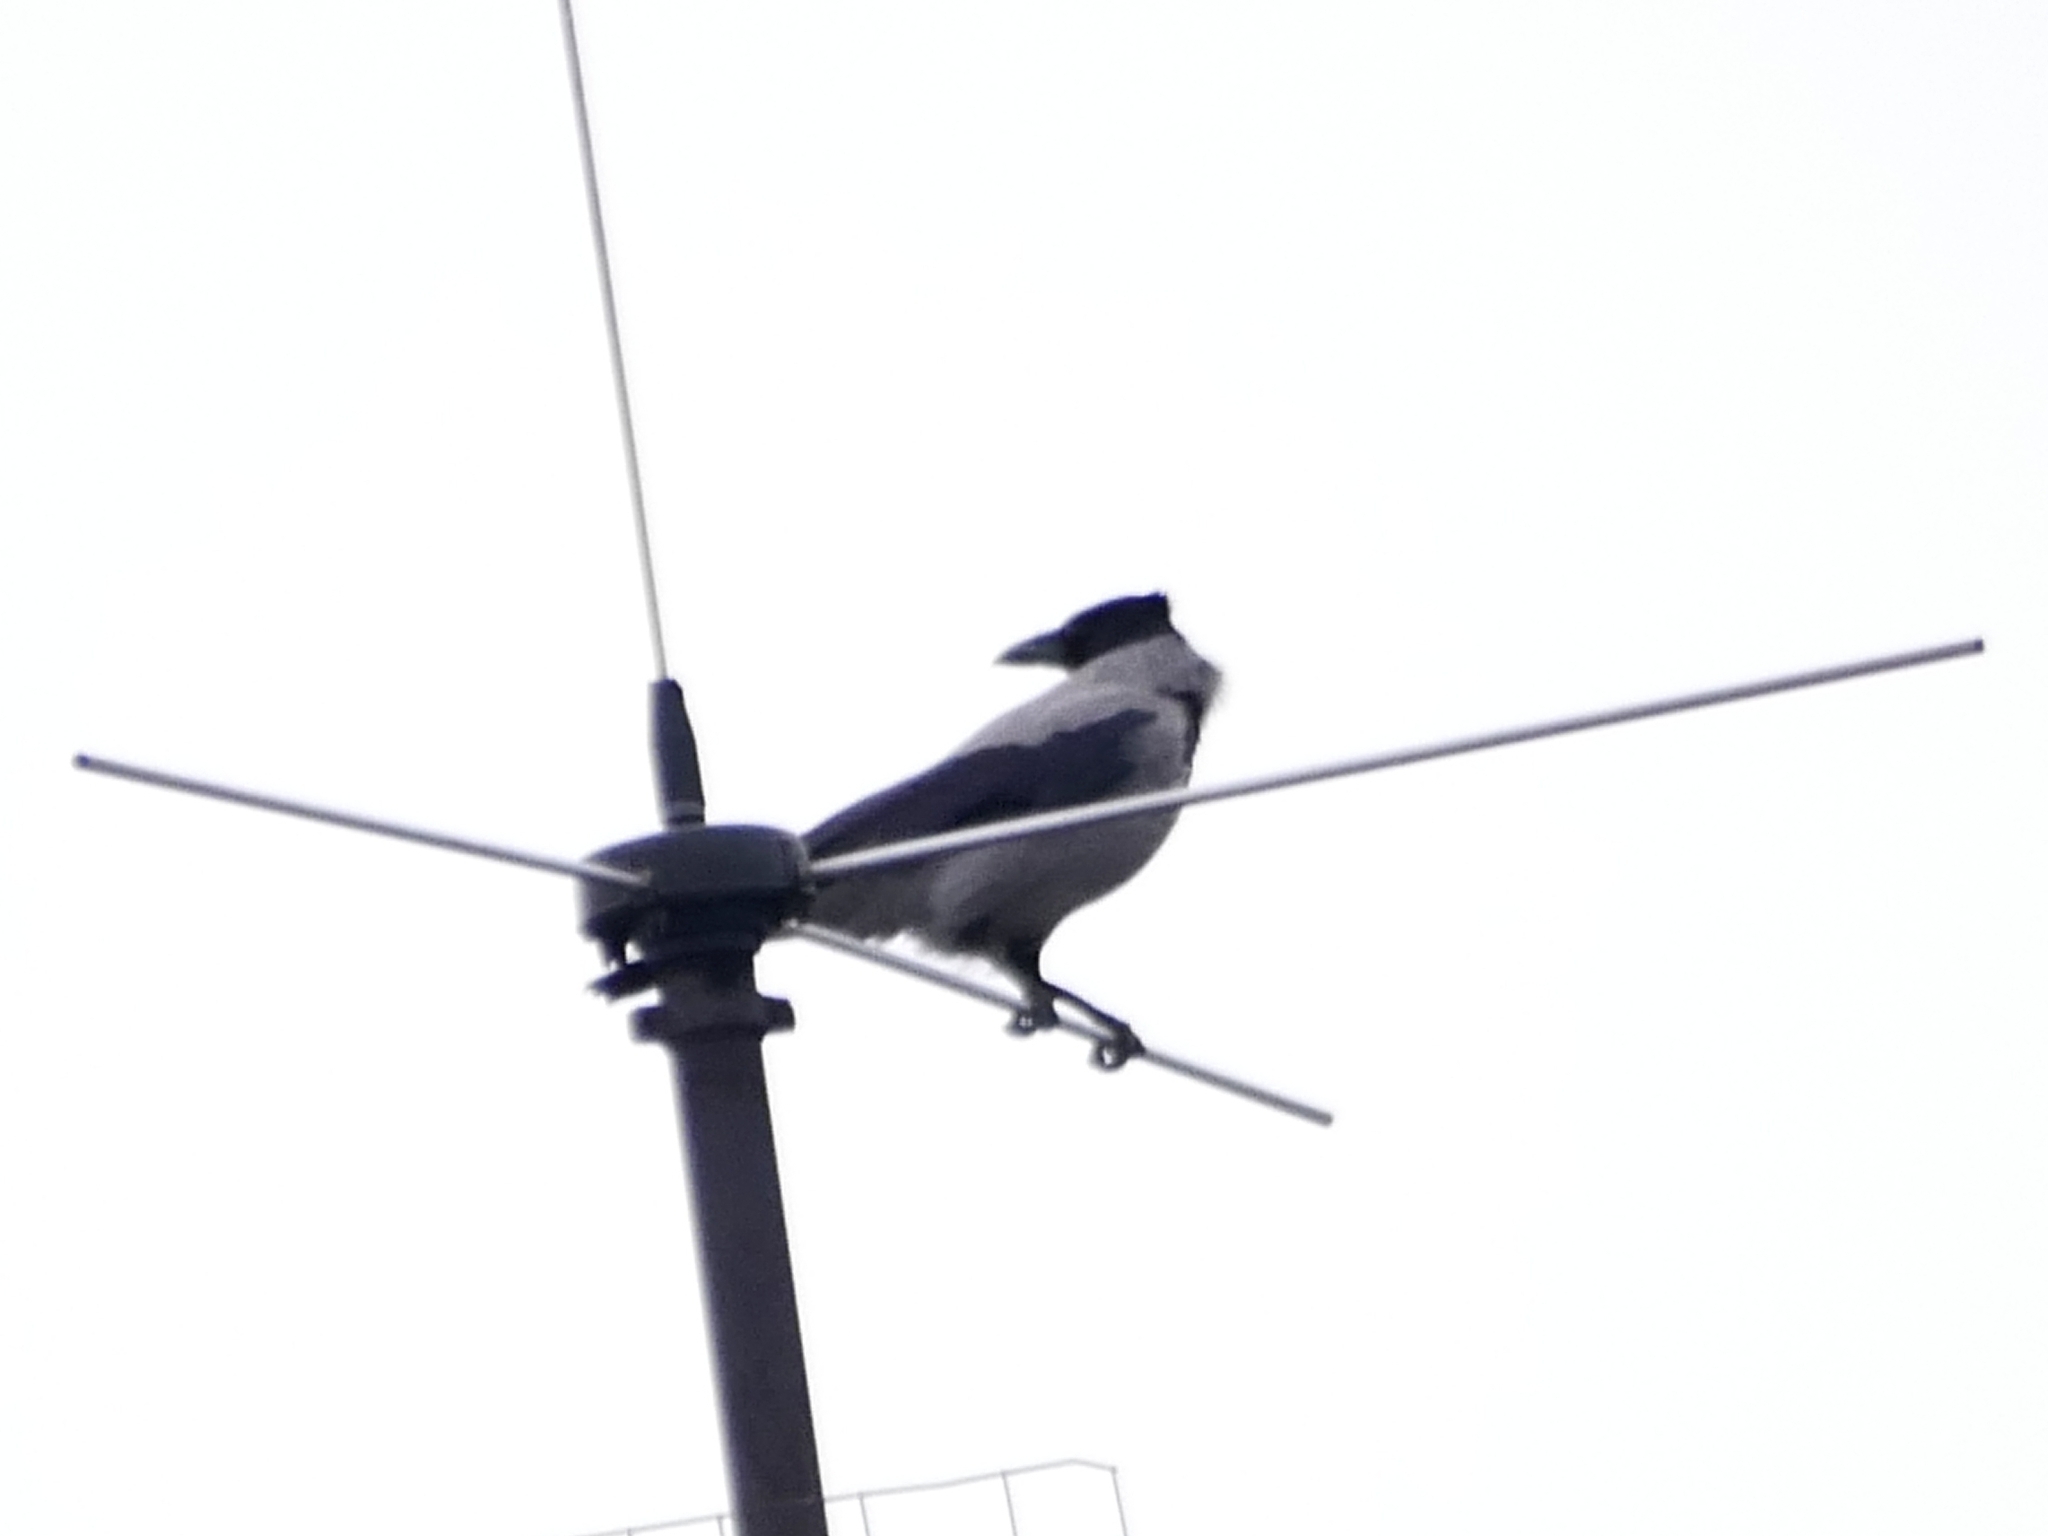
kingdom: Animalia
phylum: Chordata
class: Aves
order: Passeriformes
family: Corvidae
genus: Corvus
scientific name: Corvus cornix
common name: Hooded crow
